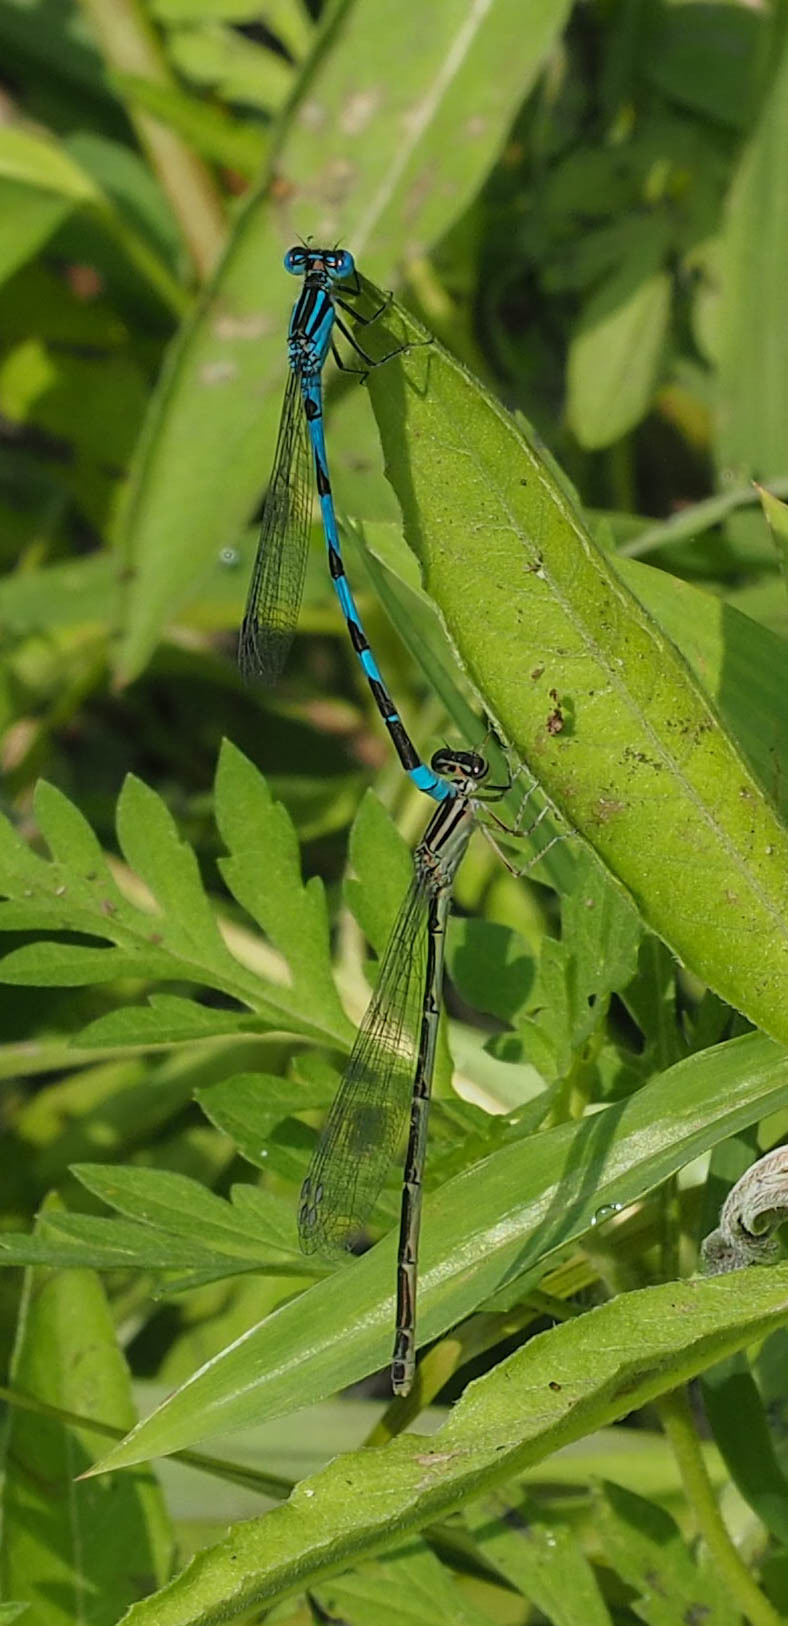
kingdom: Animalia
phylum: Arthropoda
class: Insecta
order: Odonata
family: Coenagrionidae
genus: Enallagma
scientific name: Enallagma durum
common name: Big bluet
